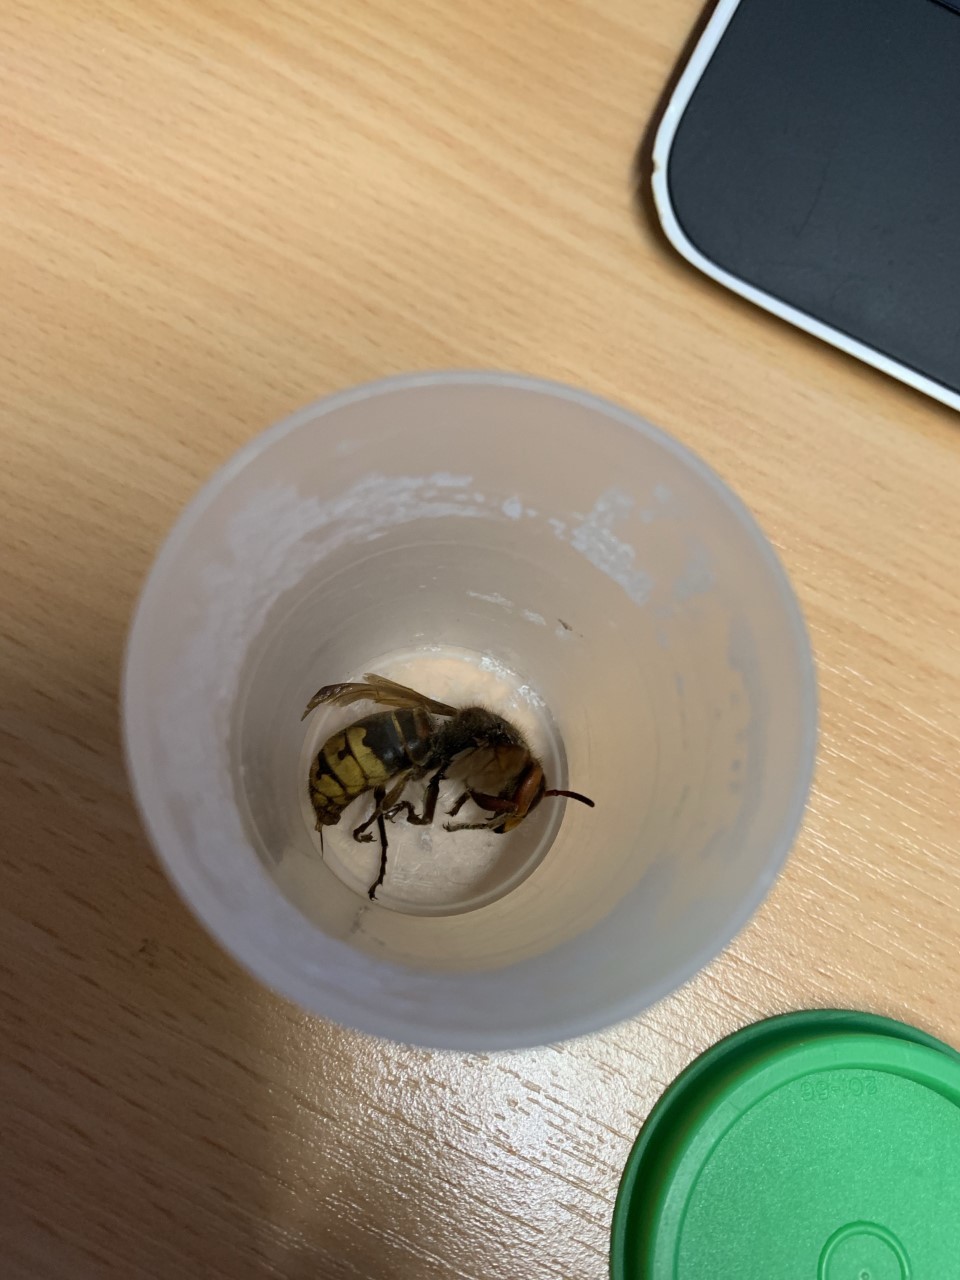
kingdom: Animalia
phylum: Arthropoda
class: Insecta
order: Hymenoptera
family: Vespidae
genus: Vespa
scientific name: Vespa crabro
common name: Hornet
